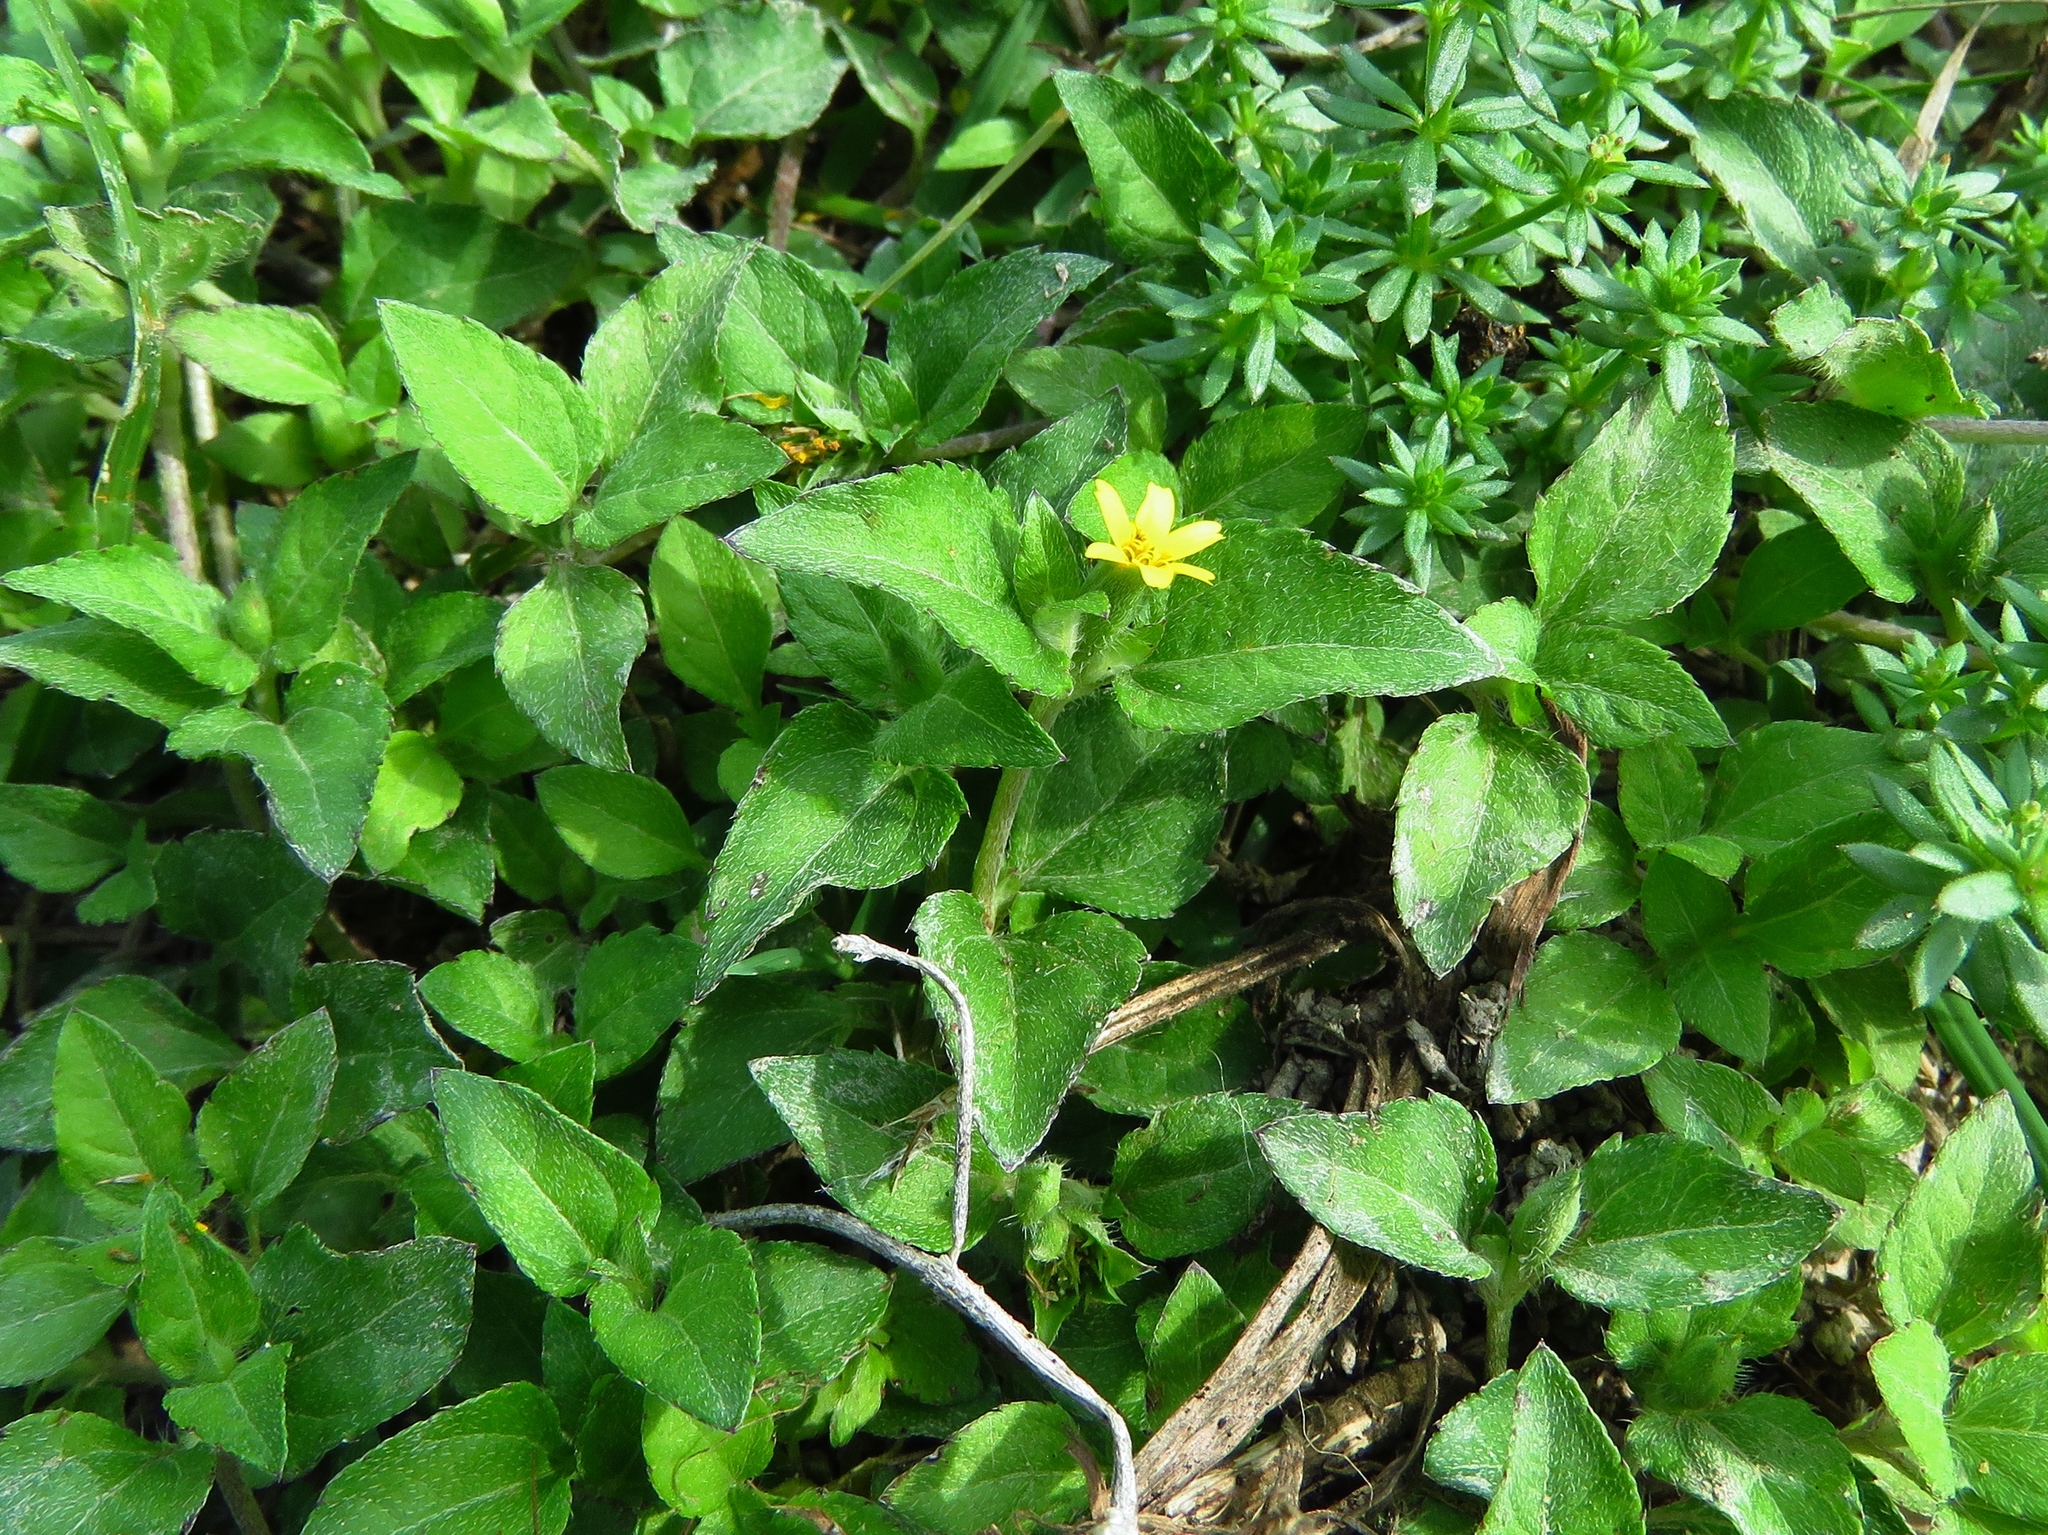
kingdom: Plantae
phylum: Tracheophyta
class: Magnoliopsida
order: Asterales
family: Asteraceae
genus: Calyptocarpus
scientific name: Calyptocarpus vialis
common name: Straggler daisy
